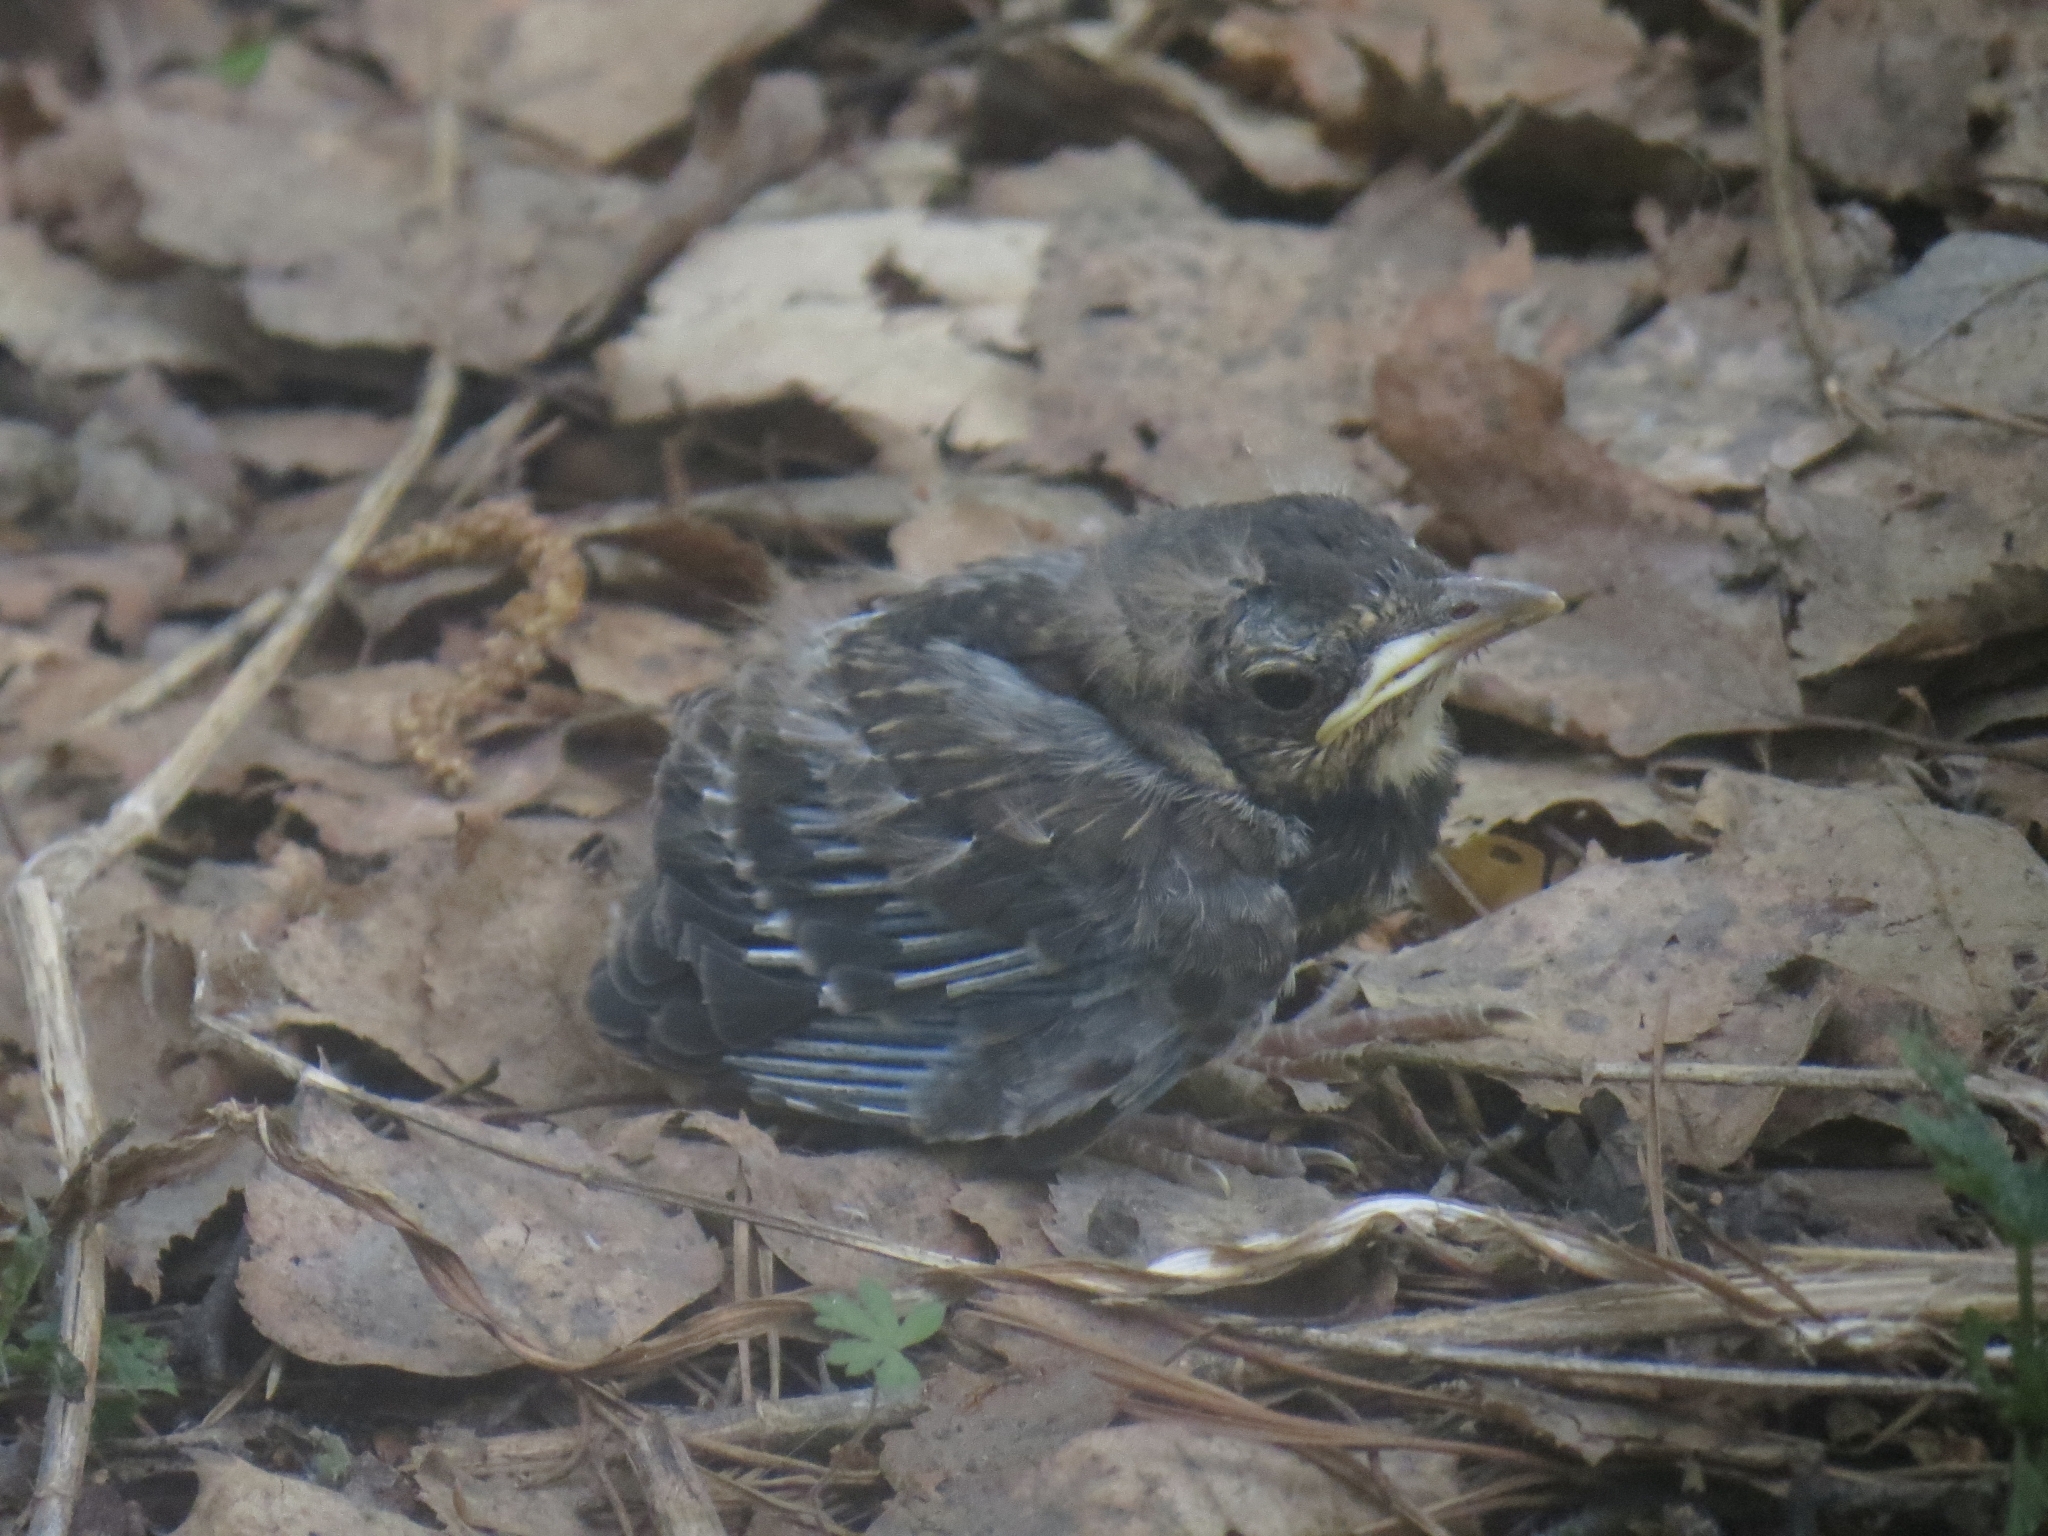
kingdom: Animalia
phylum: Chordata
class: Aves
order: Passeriformes
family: Turdidae
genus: Turdus
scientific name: Turdus pilaris
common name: Fieldfare
